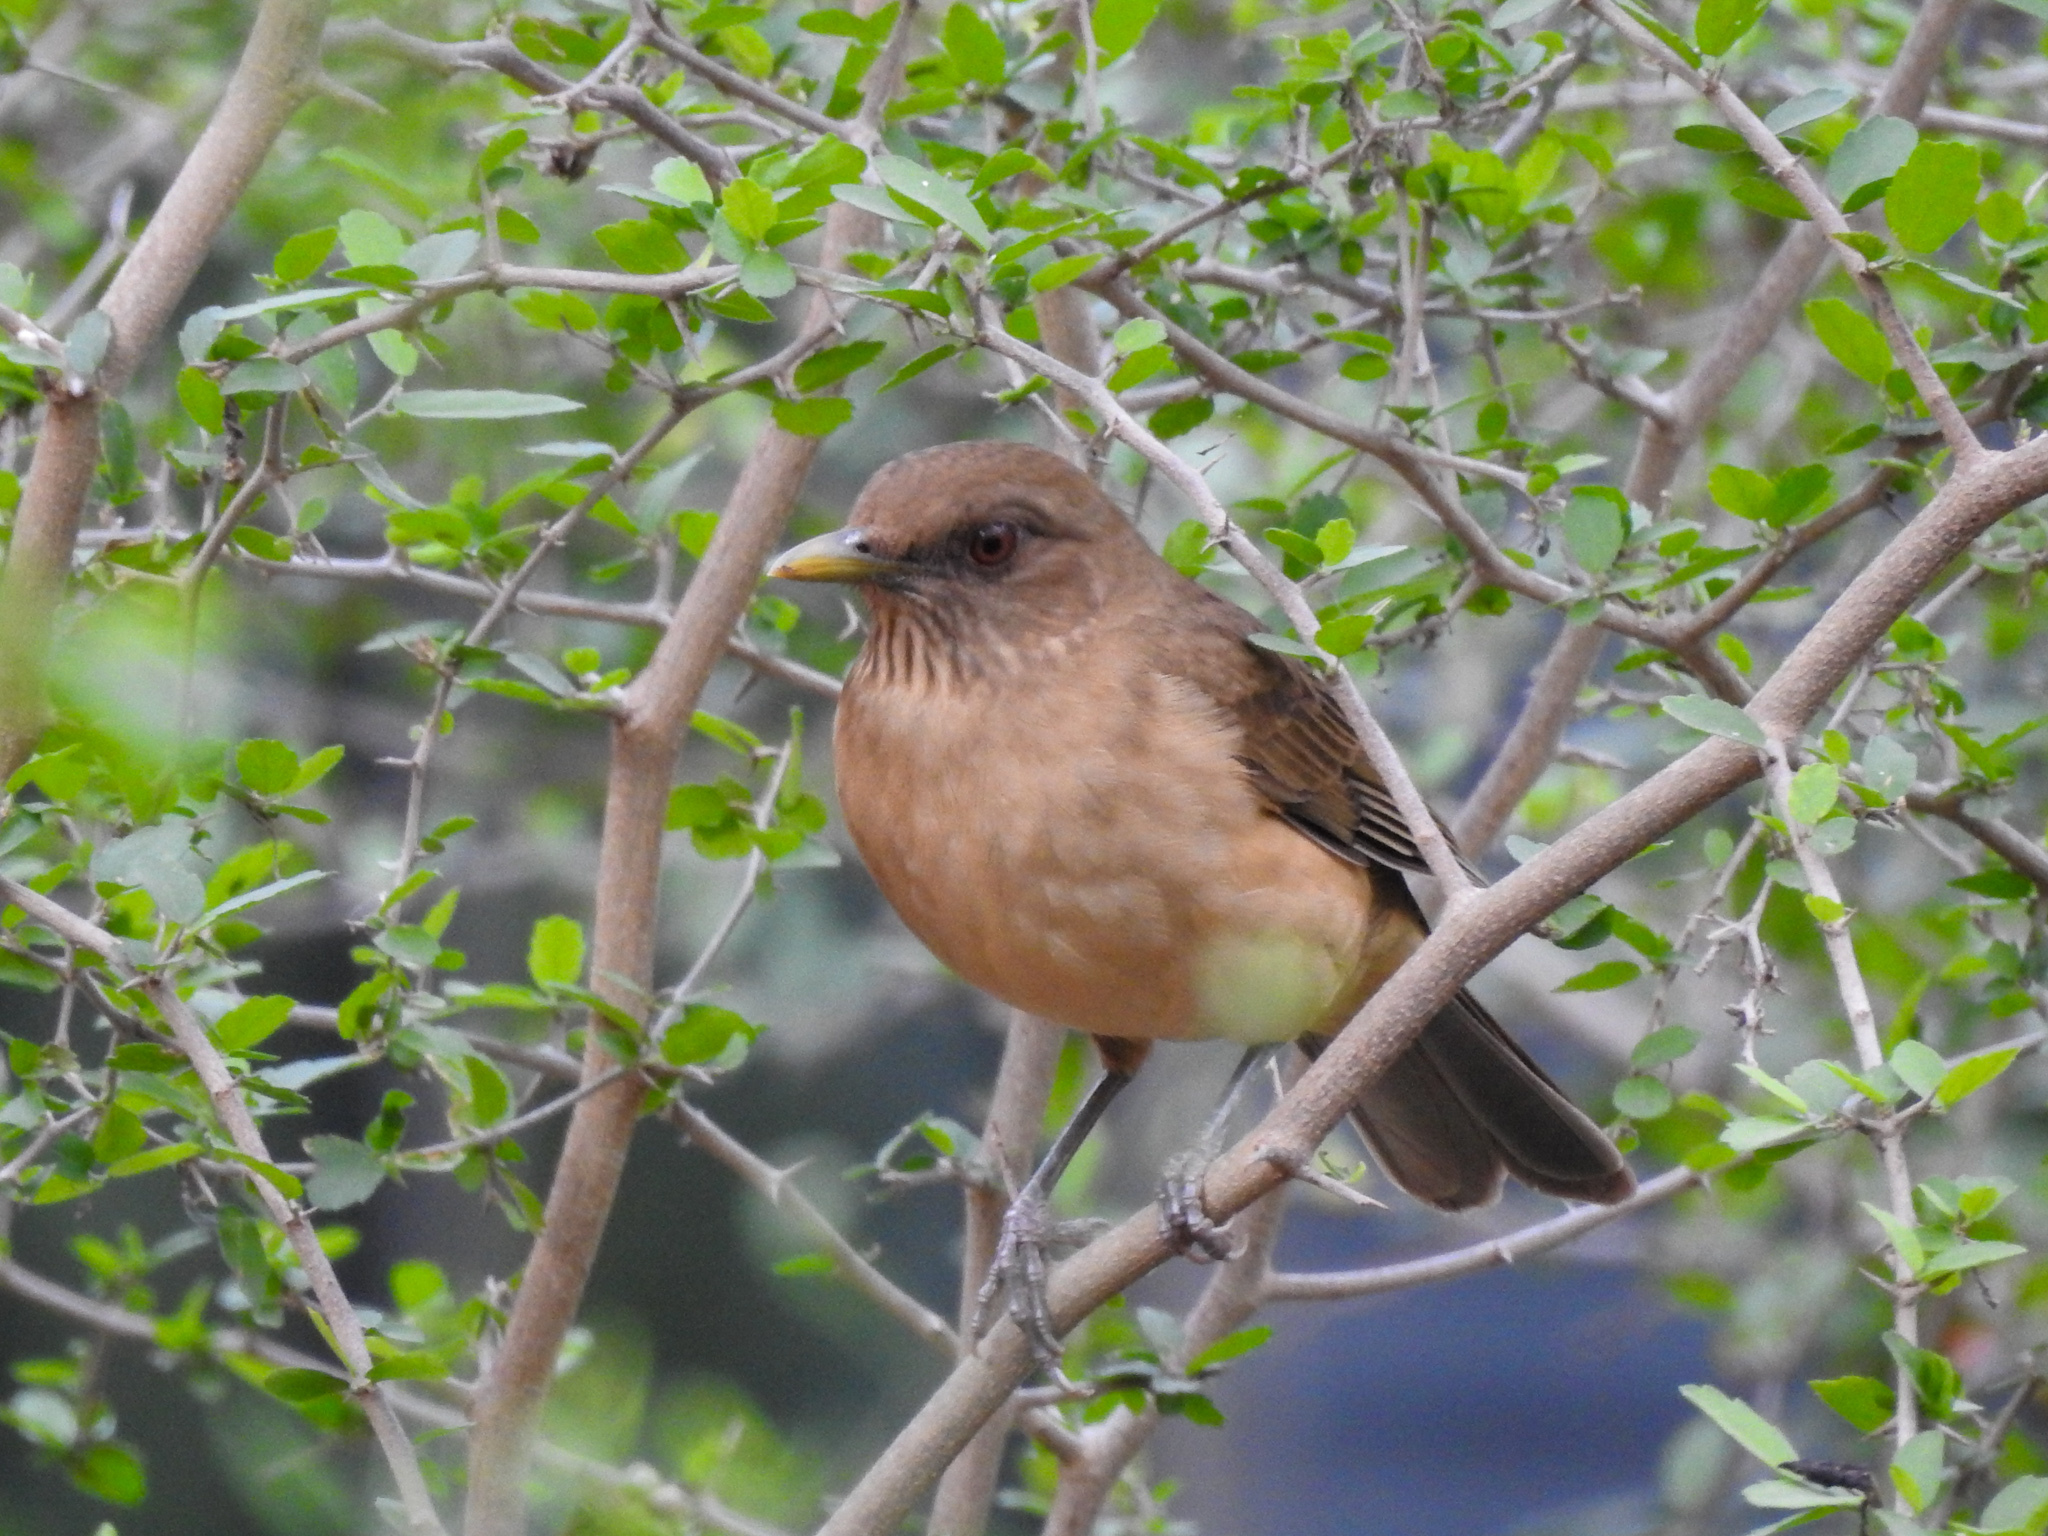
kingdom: Animalia
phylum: Chordata
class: Aves
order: Passeriformes
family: Turdidae
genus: Turdus
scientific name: Turdus grayi
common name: Clay-colored thrush
